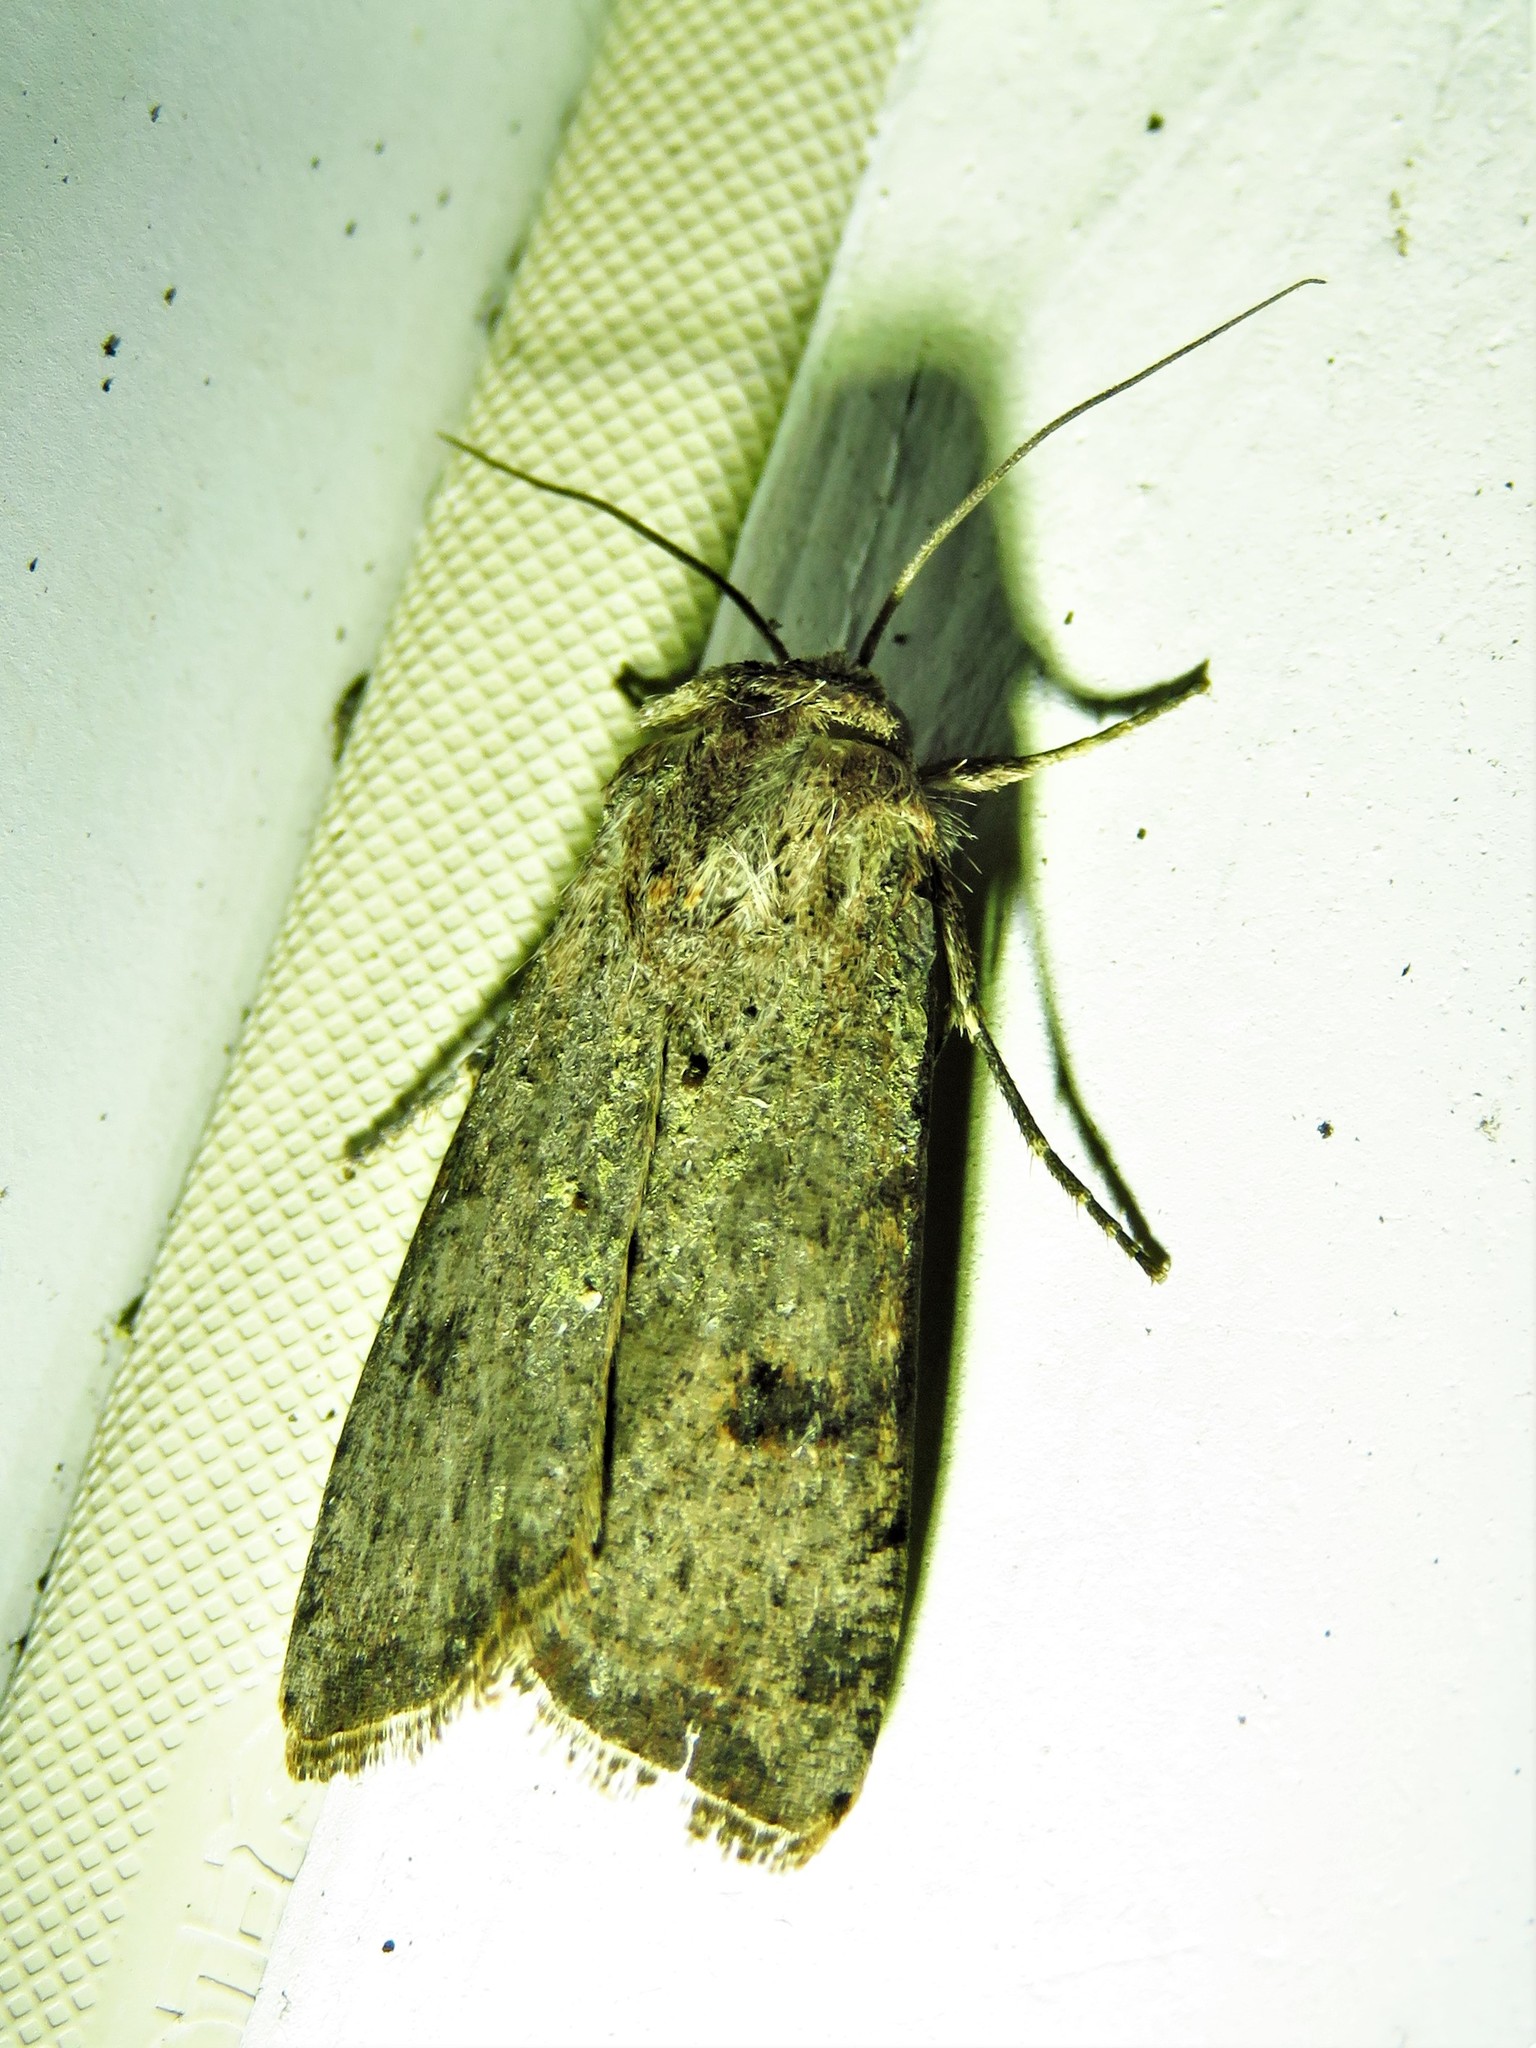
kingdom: Animalia
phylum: Arthropoda
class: Insecta
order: Lepidoptera
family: Noctuidae
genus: Anicla
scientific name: Anicla infecta
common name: Green cutworm
